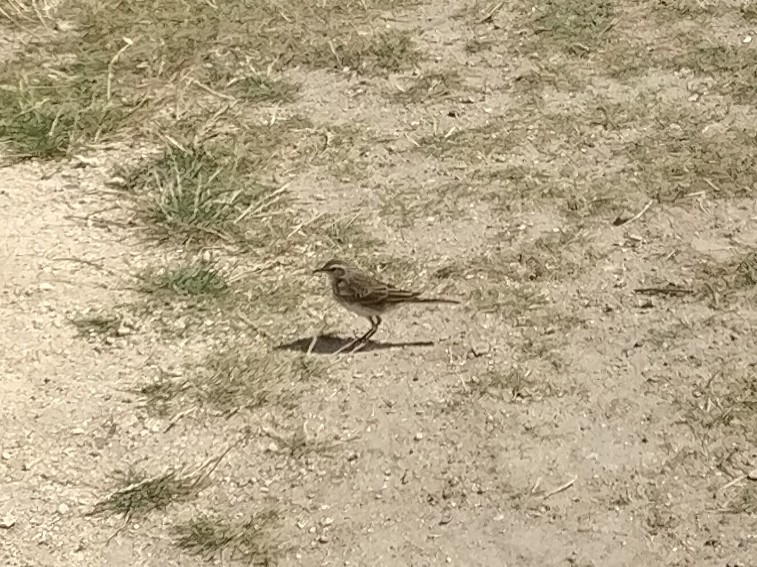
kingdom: Animalia
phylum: Chordata
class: Aves
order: Passeriformes
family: Motacillidae
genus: Anthus
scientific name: Anthus novaeseelandiae
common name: New zealand pipit
